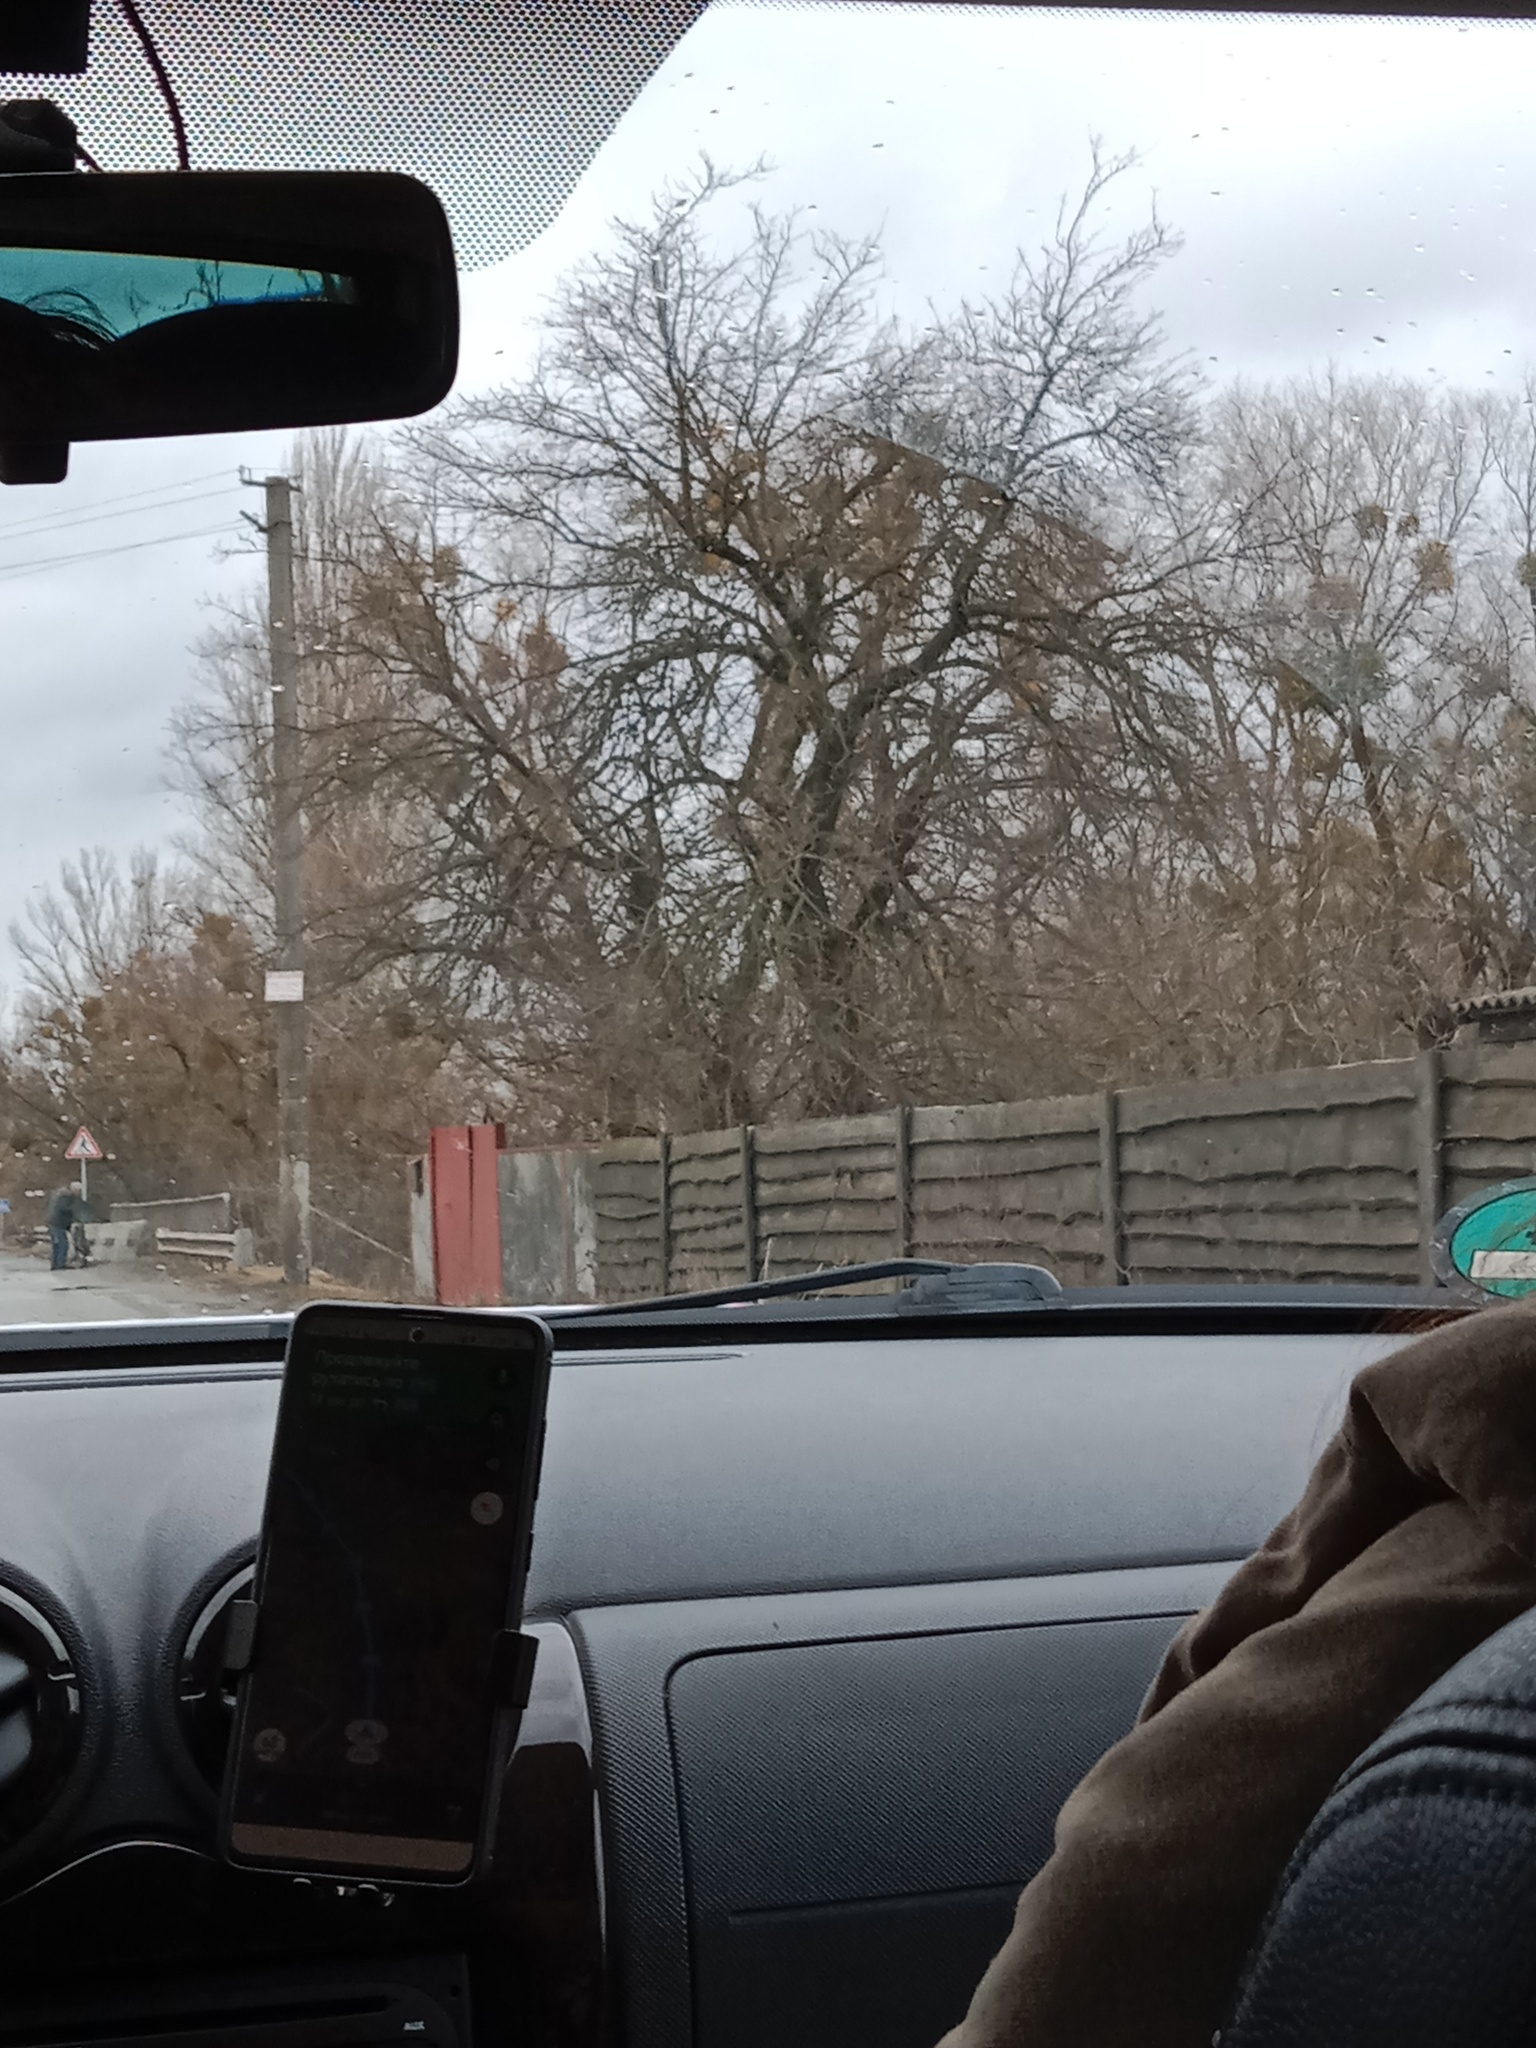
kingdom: Plantae
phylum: Tracheophyta
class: Magnoliopsida
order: Santalales
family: Viscaceae
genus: Viscum
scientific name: Viscum album
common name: Mistletoe
